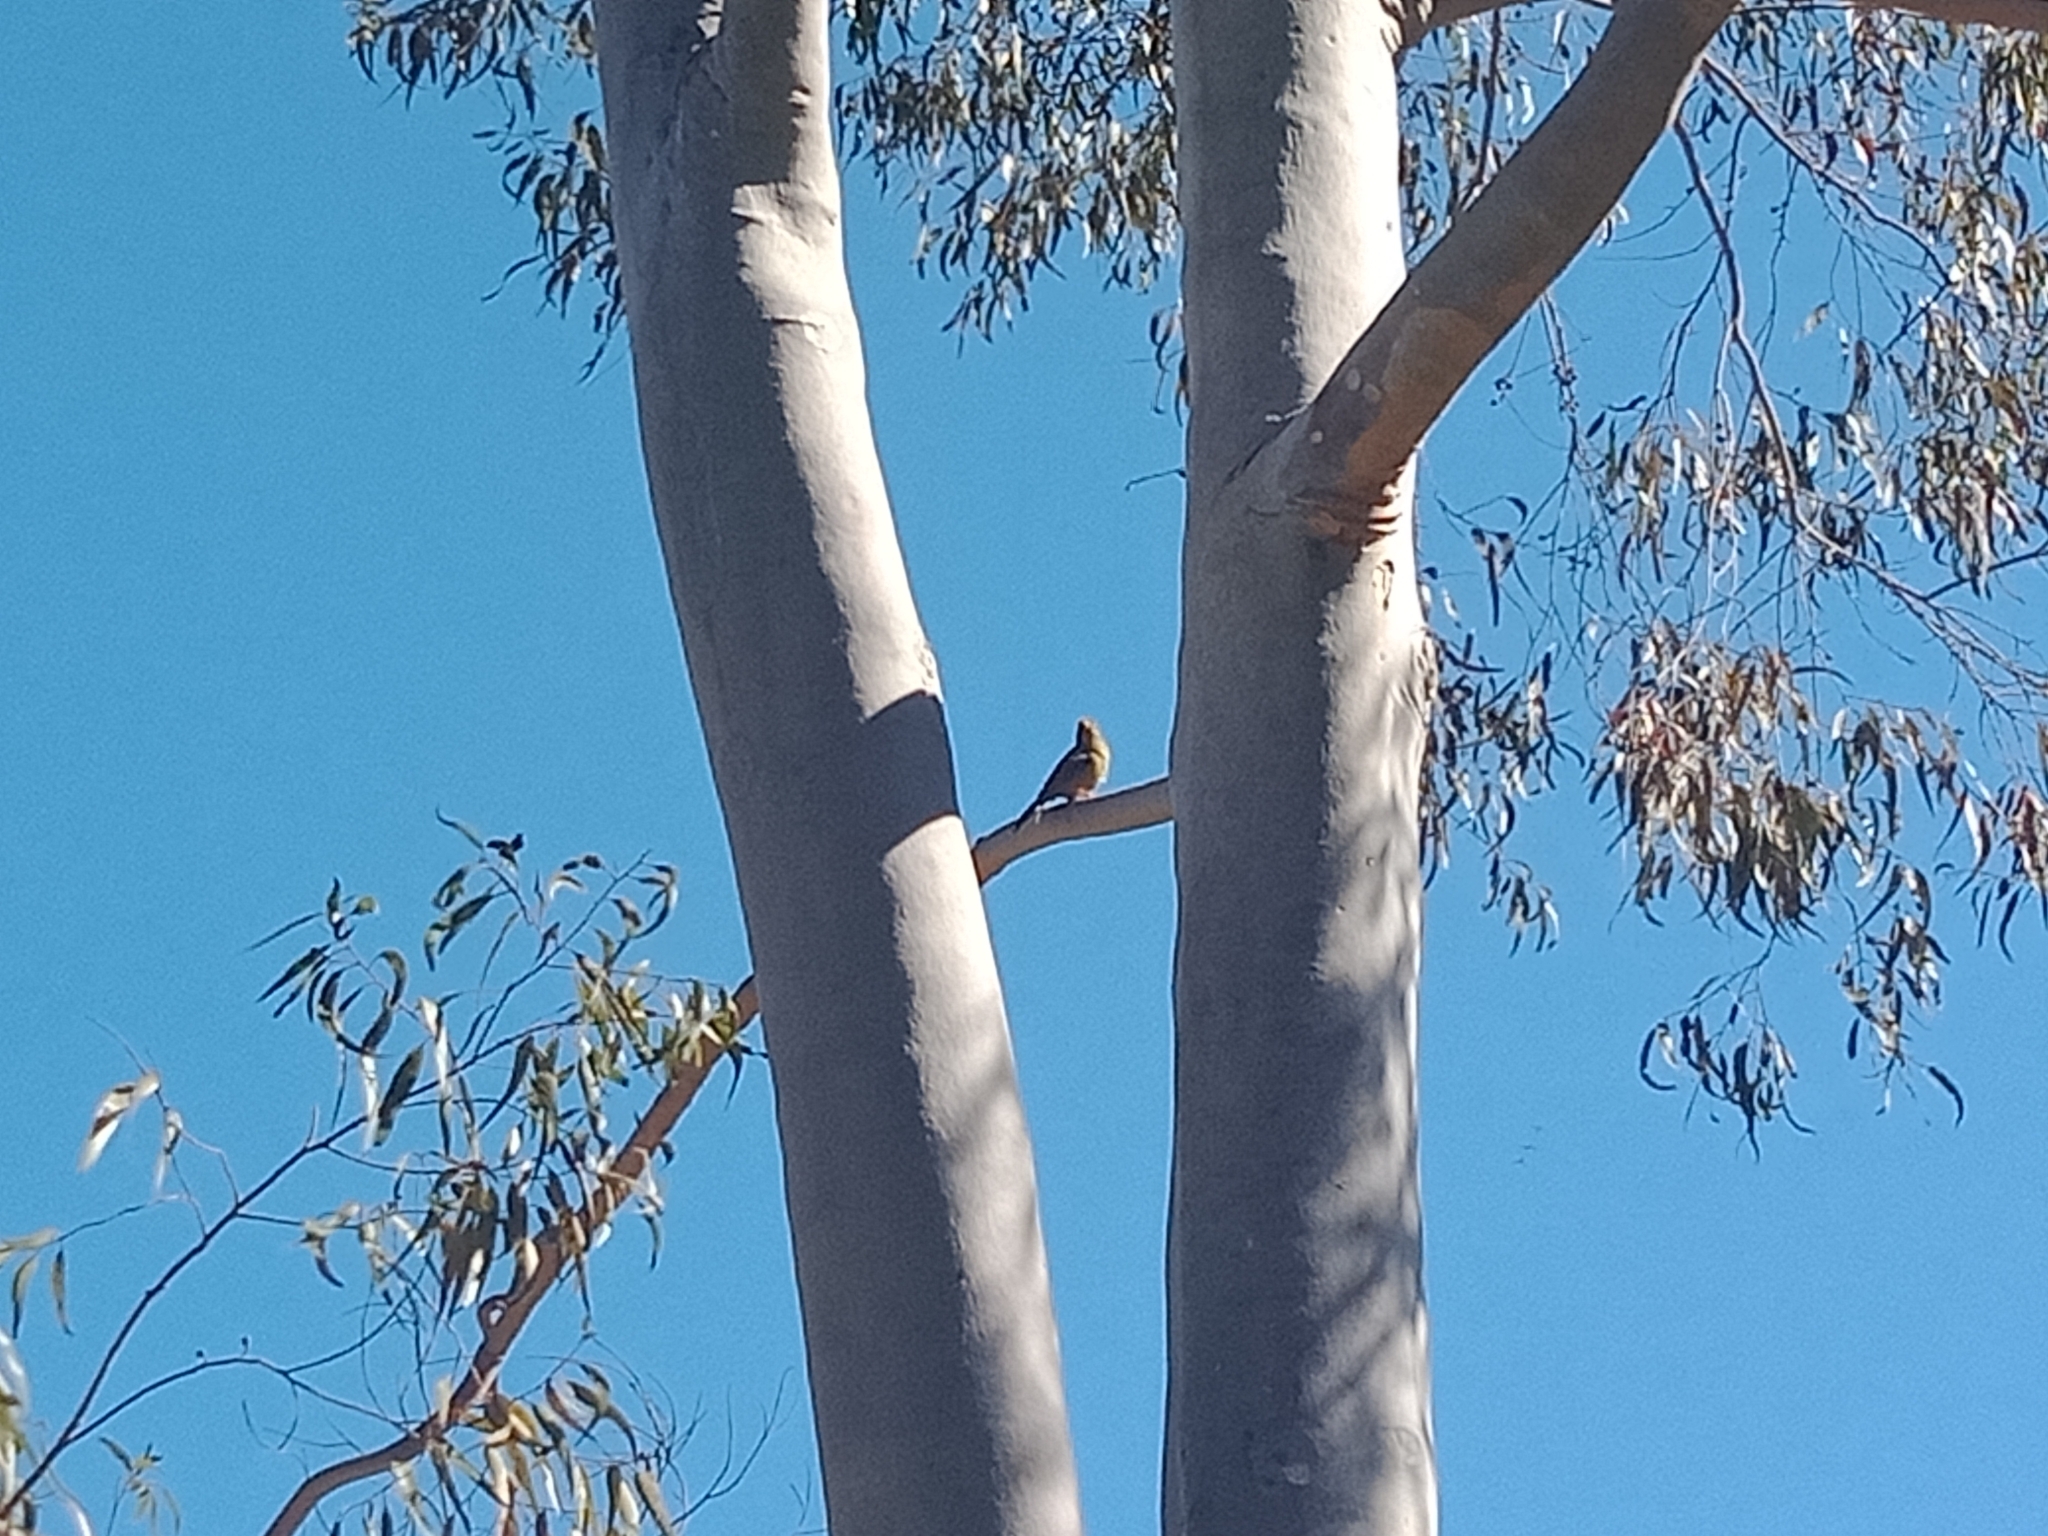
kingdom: Animalia
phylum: Chordata
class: Aves
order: Passeriformes
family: Meliphagidae
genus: Manorina
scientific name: Manorina melanophrys
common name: Bell miner
